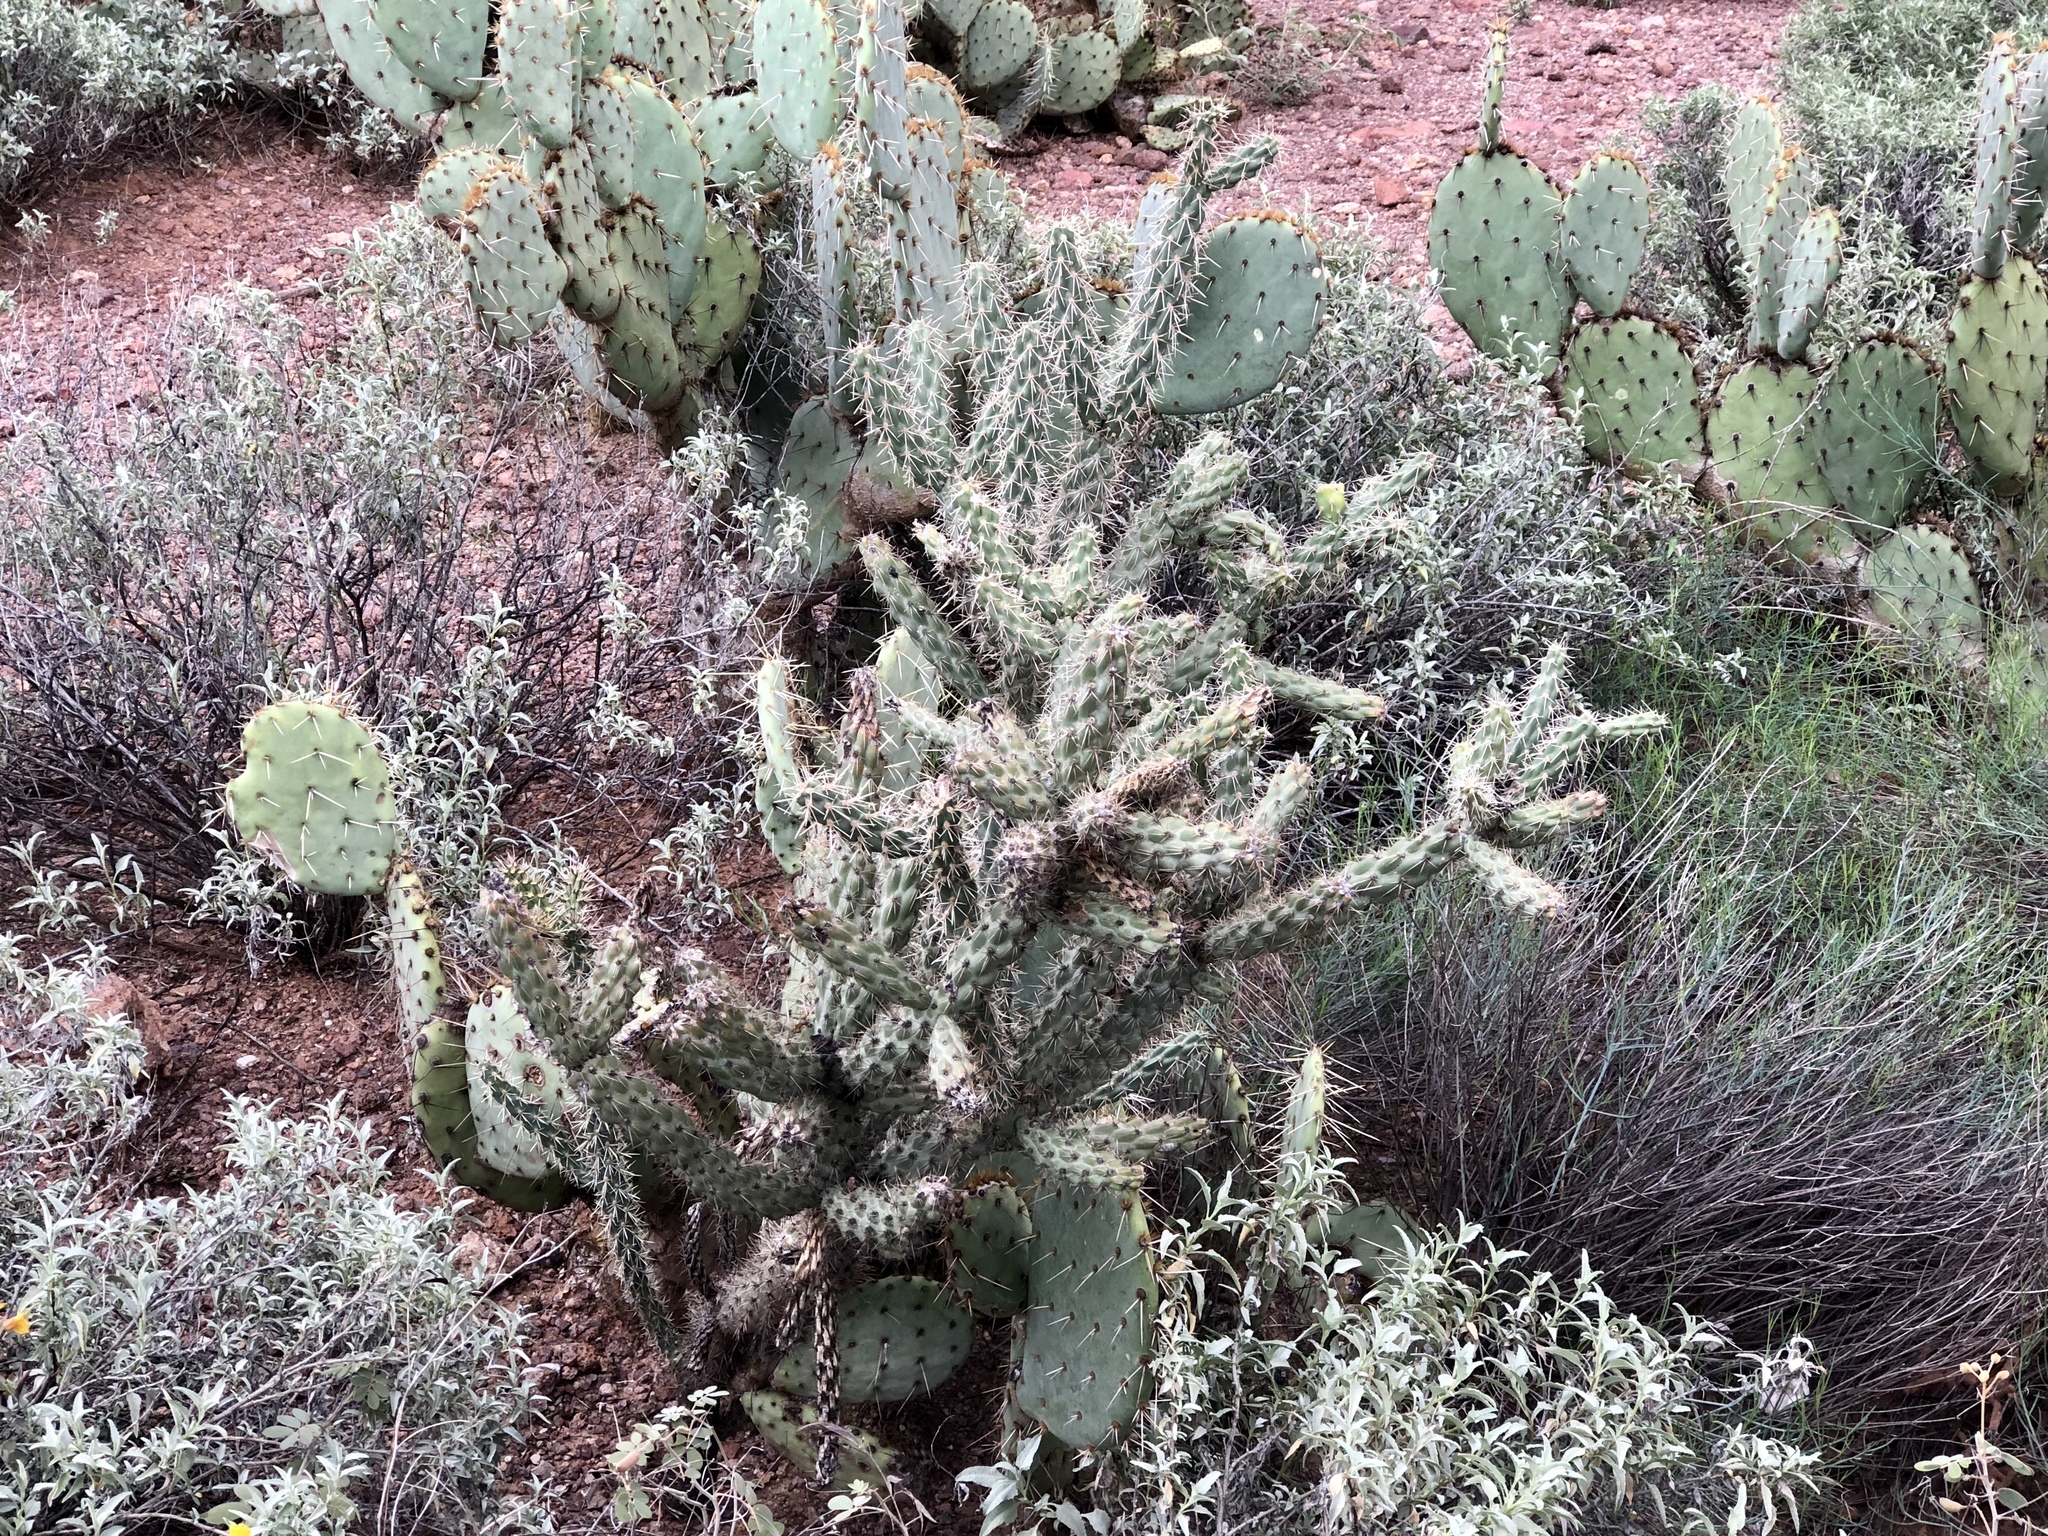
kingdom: Plantae
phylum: Tracheophyta
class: Magnoliopsida
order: Caryophyllales
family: Cactaceae
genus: Cylindropuntia
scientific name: Cylindropuntia fulgida
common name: Jumping cholla
